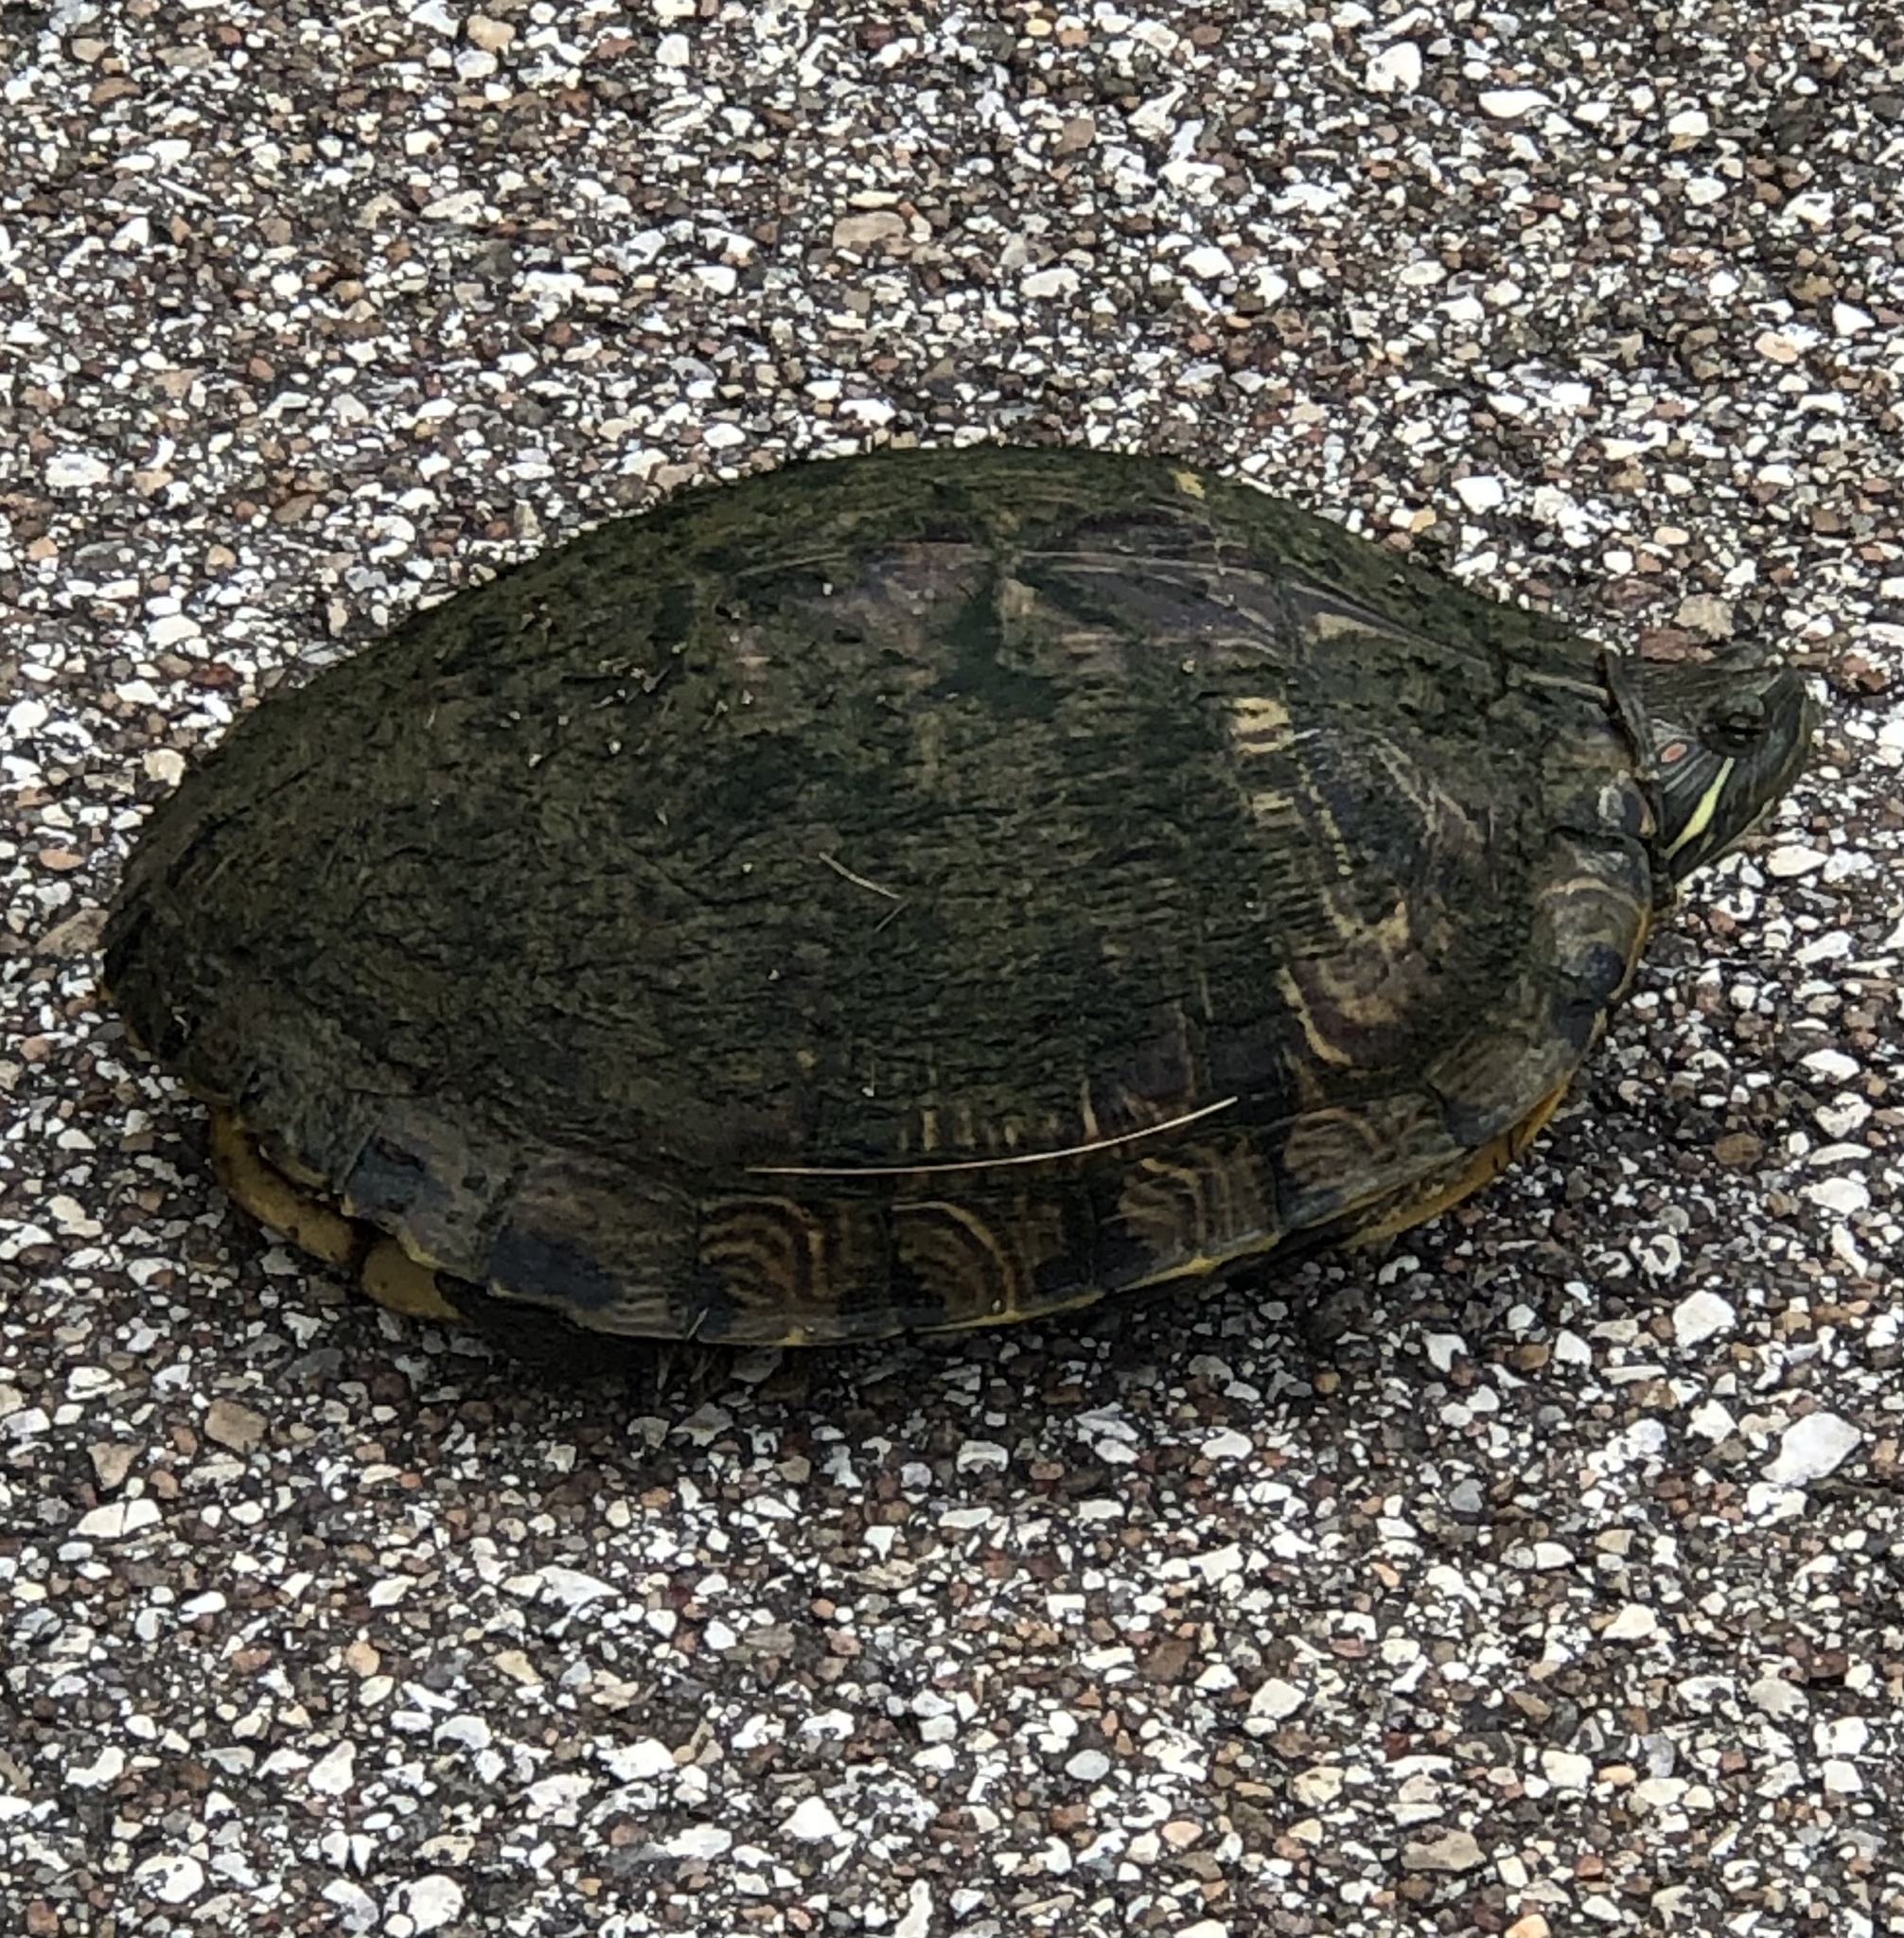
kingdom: Animalia
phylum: Chordata
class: Testudines
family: Emydidae
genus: Trachemys
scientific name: Trachemys scripta
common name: Slider
